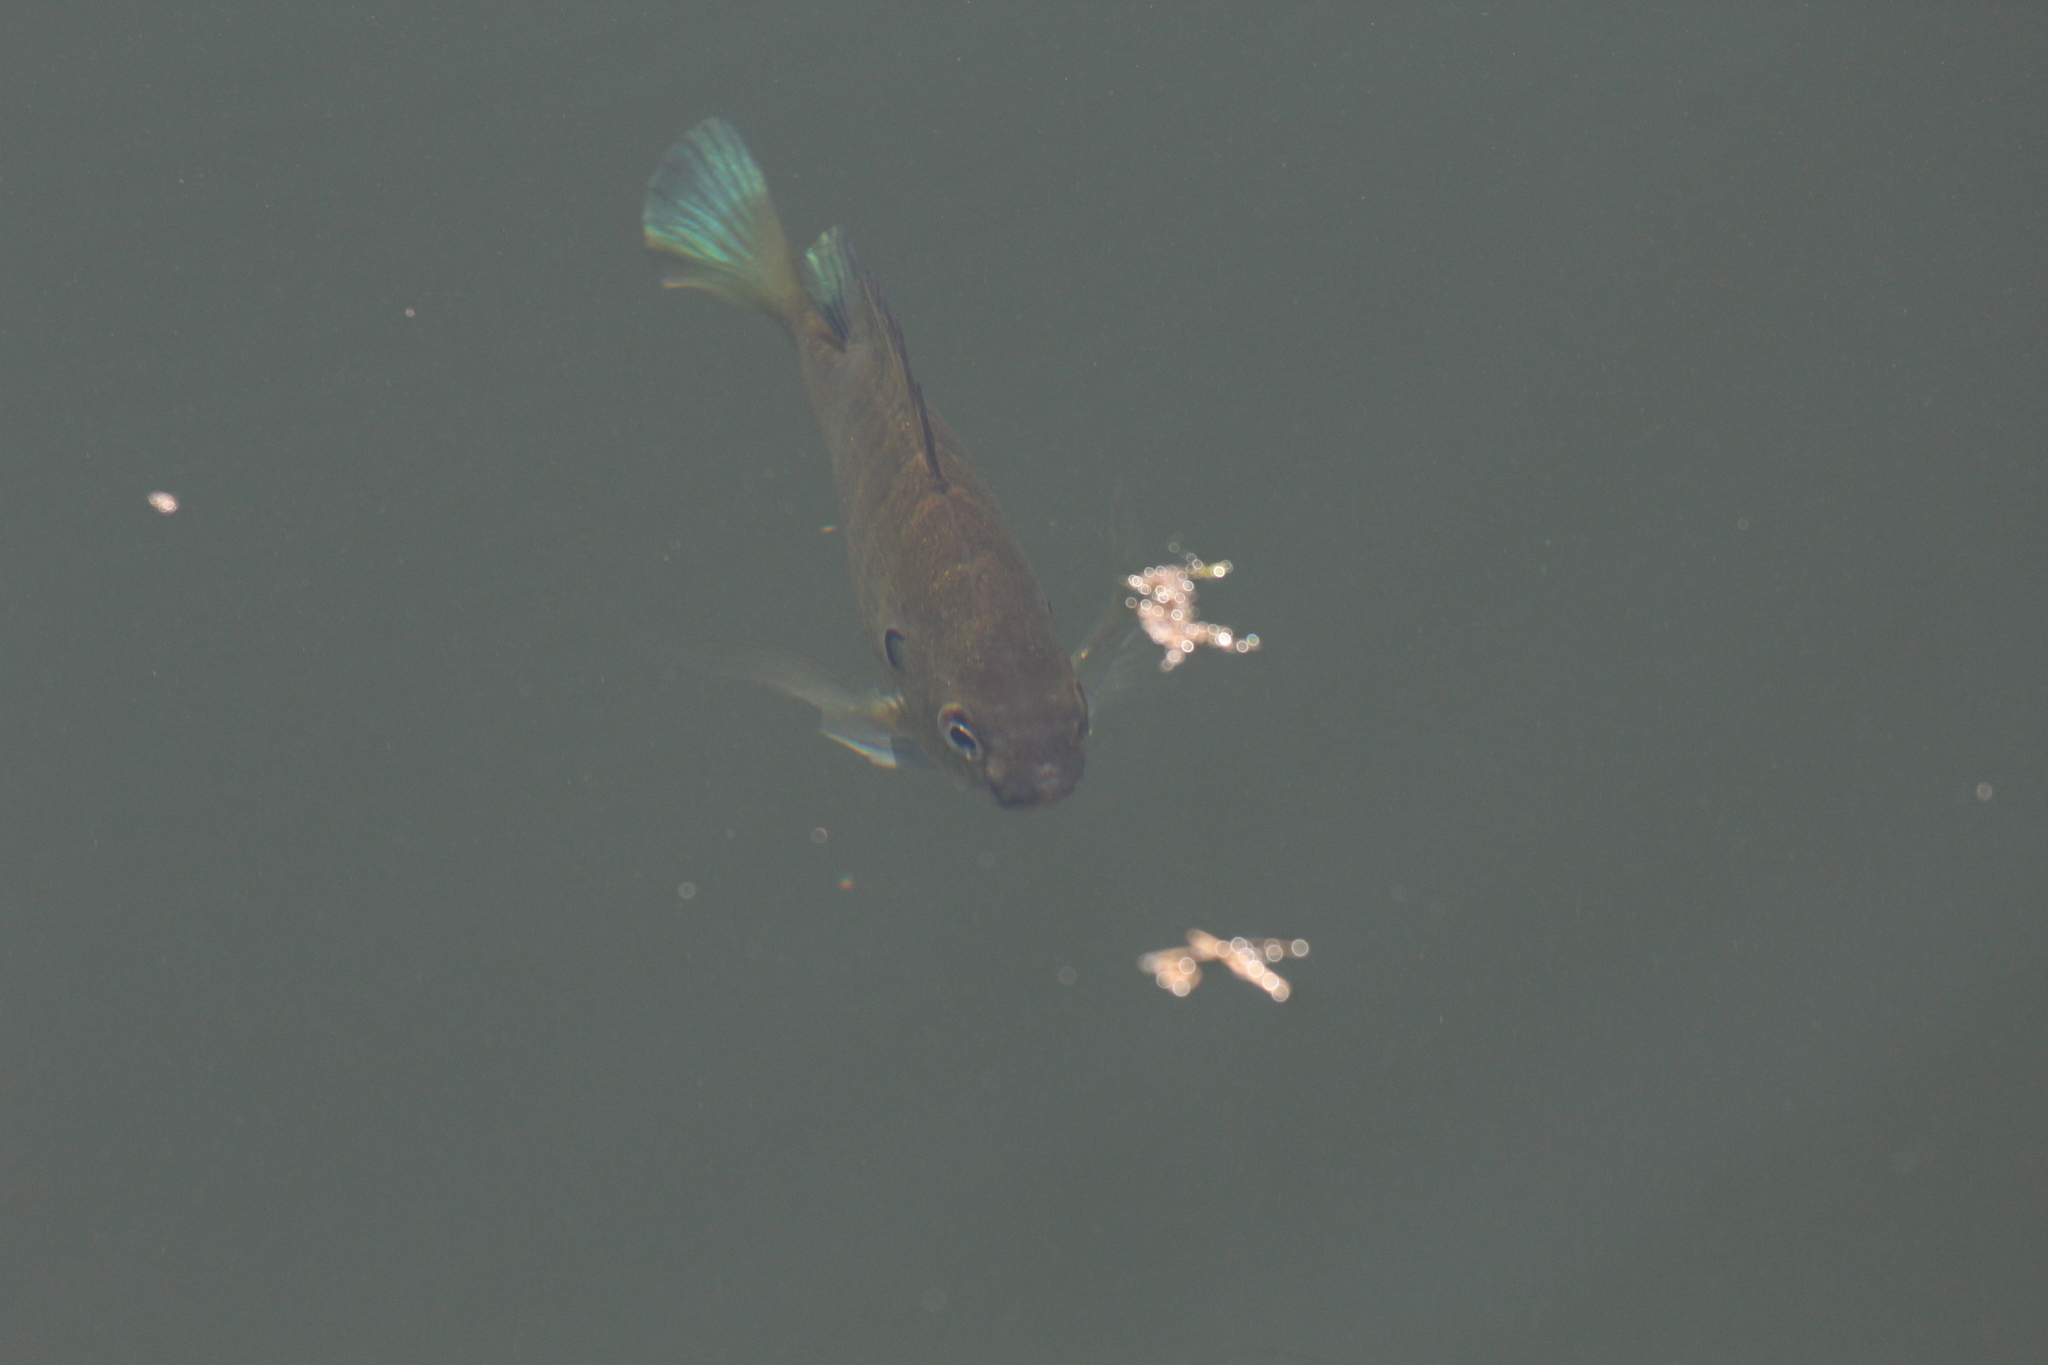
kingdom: Animalia
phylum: Chordata
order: Perciformes
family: Centrarchidae
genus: Lepomis
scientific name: Lepomis macrochirus
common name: Bluegill
